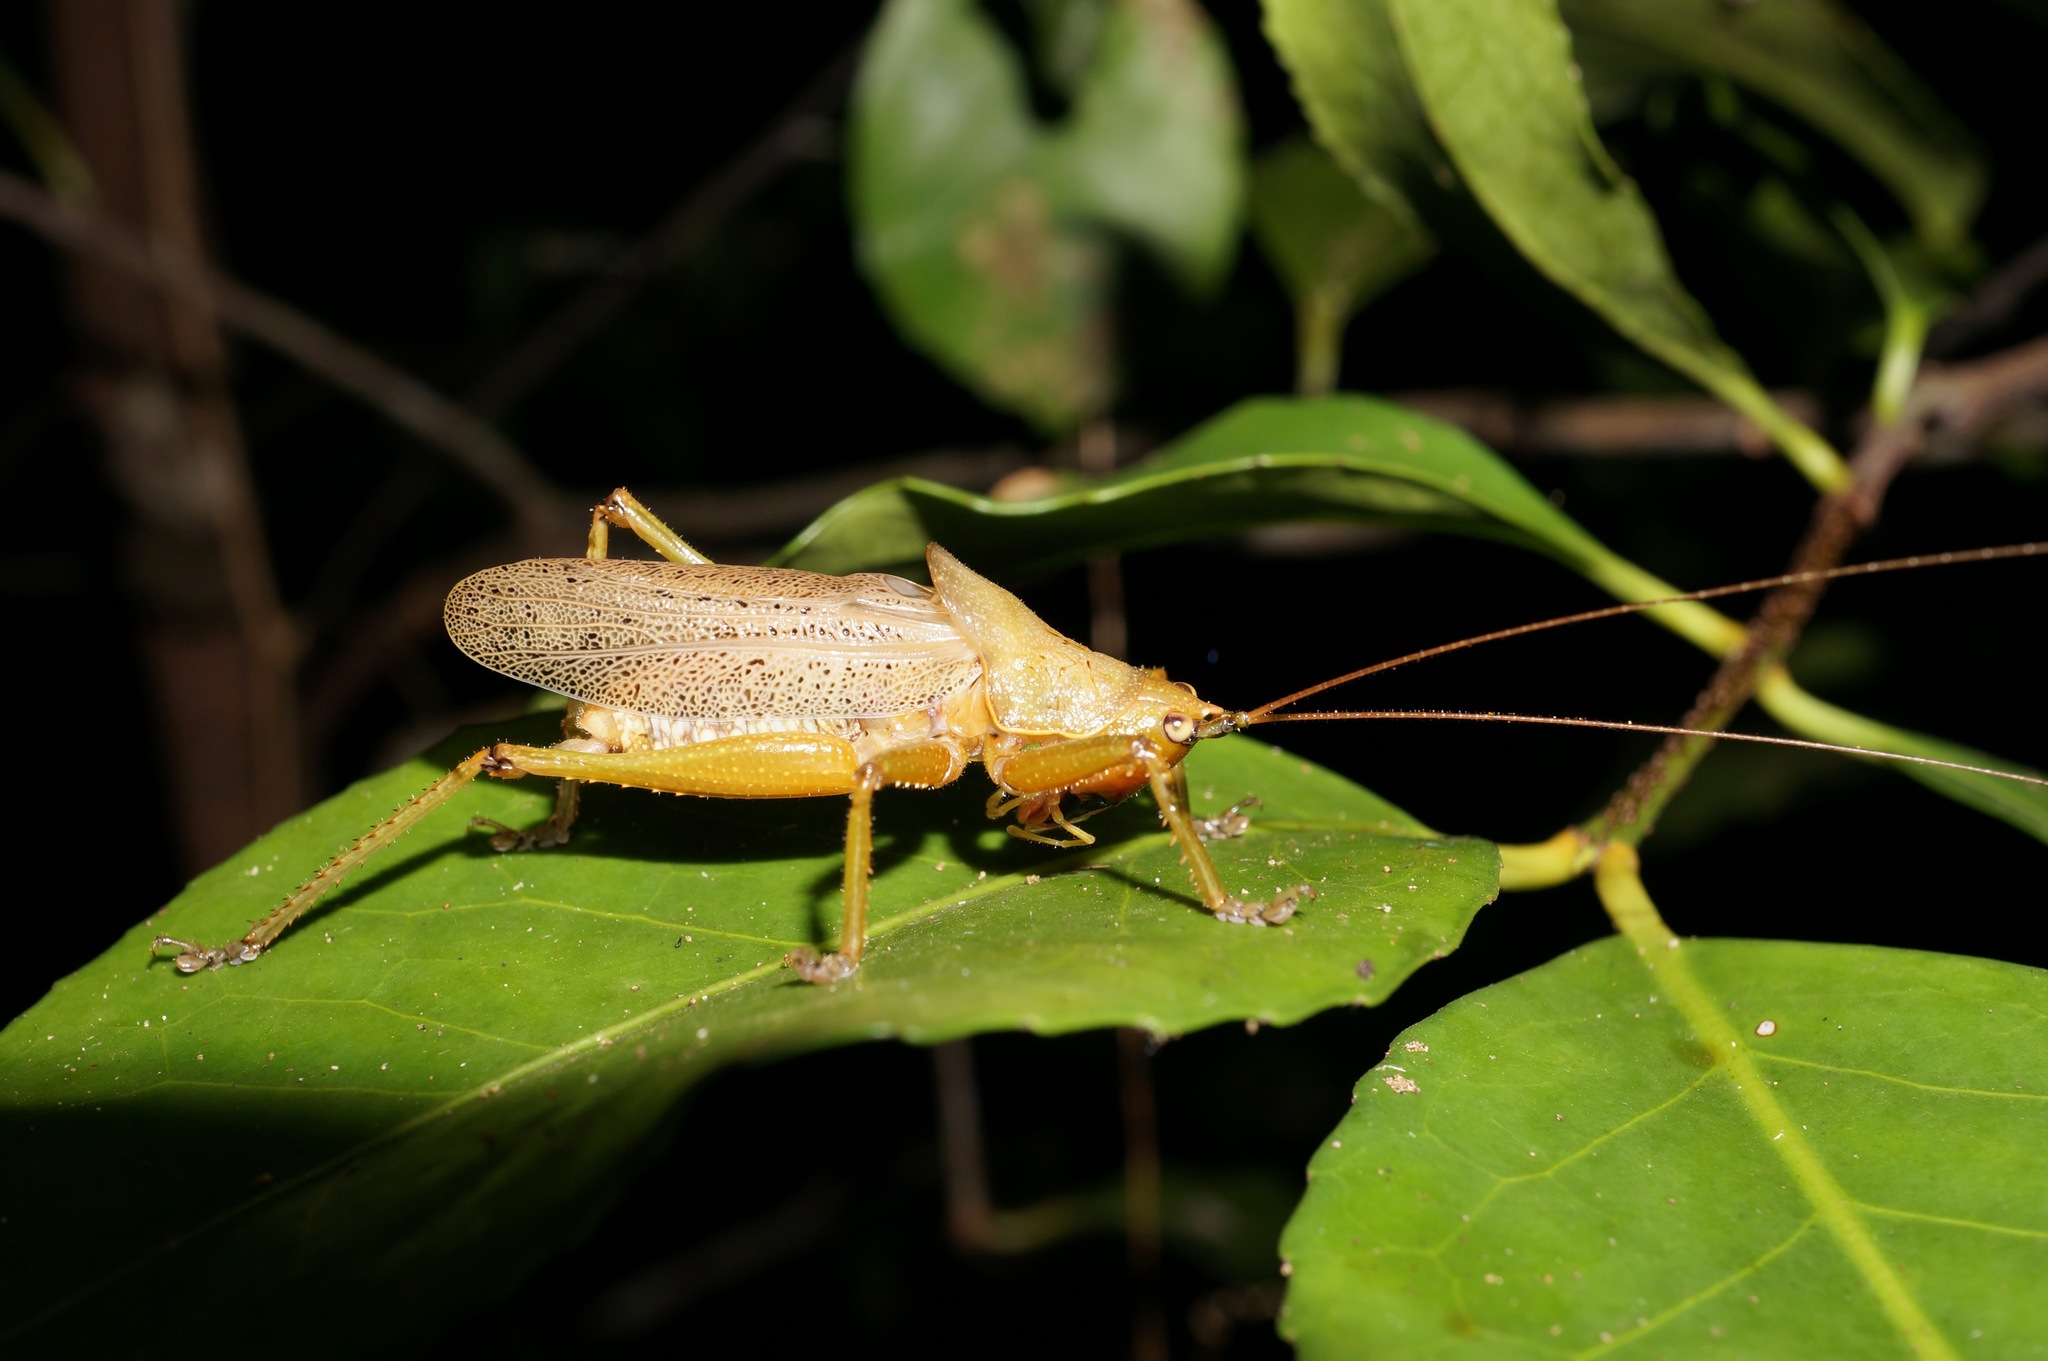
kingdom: Animalia
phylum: Arthropoda
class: Insecta
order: Orthoptera
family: Tettigoniidae
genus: Austrosalomona
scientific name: Austrosalomona personafrons
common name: Black-faced coastal kattydid
